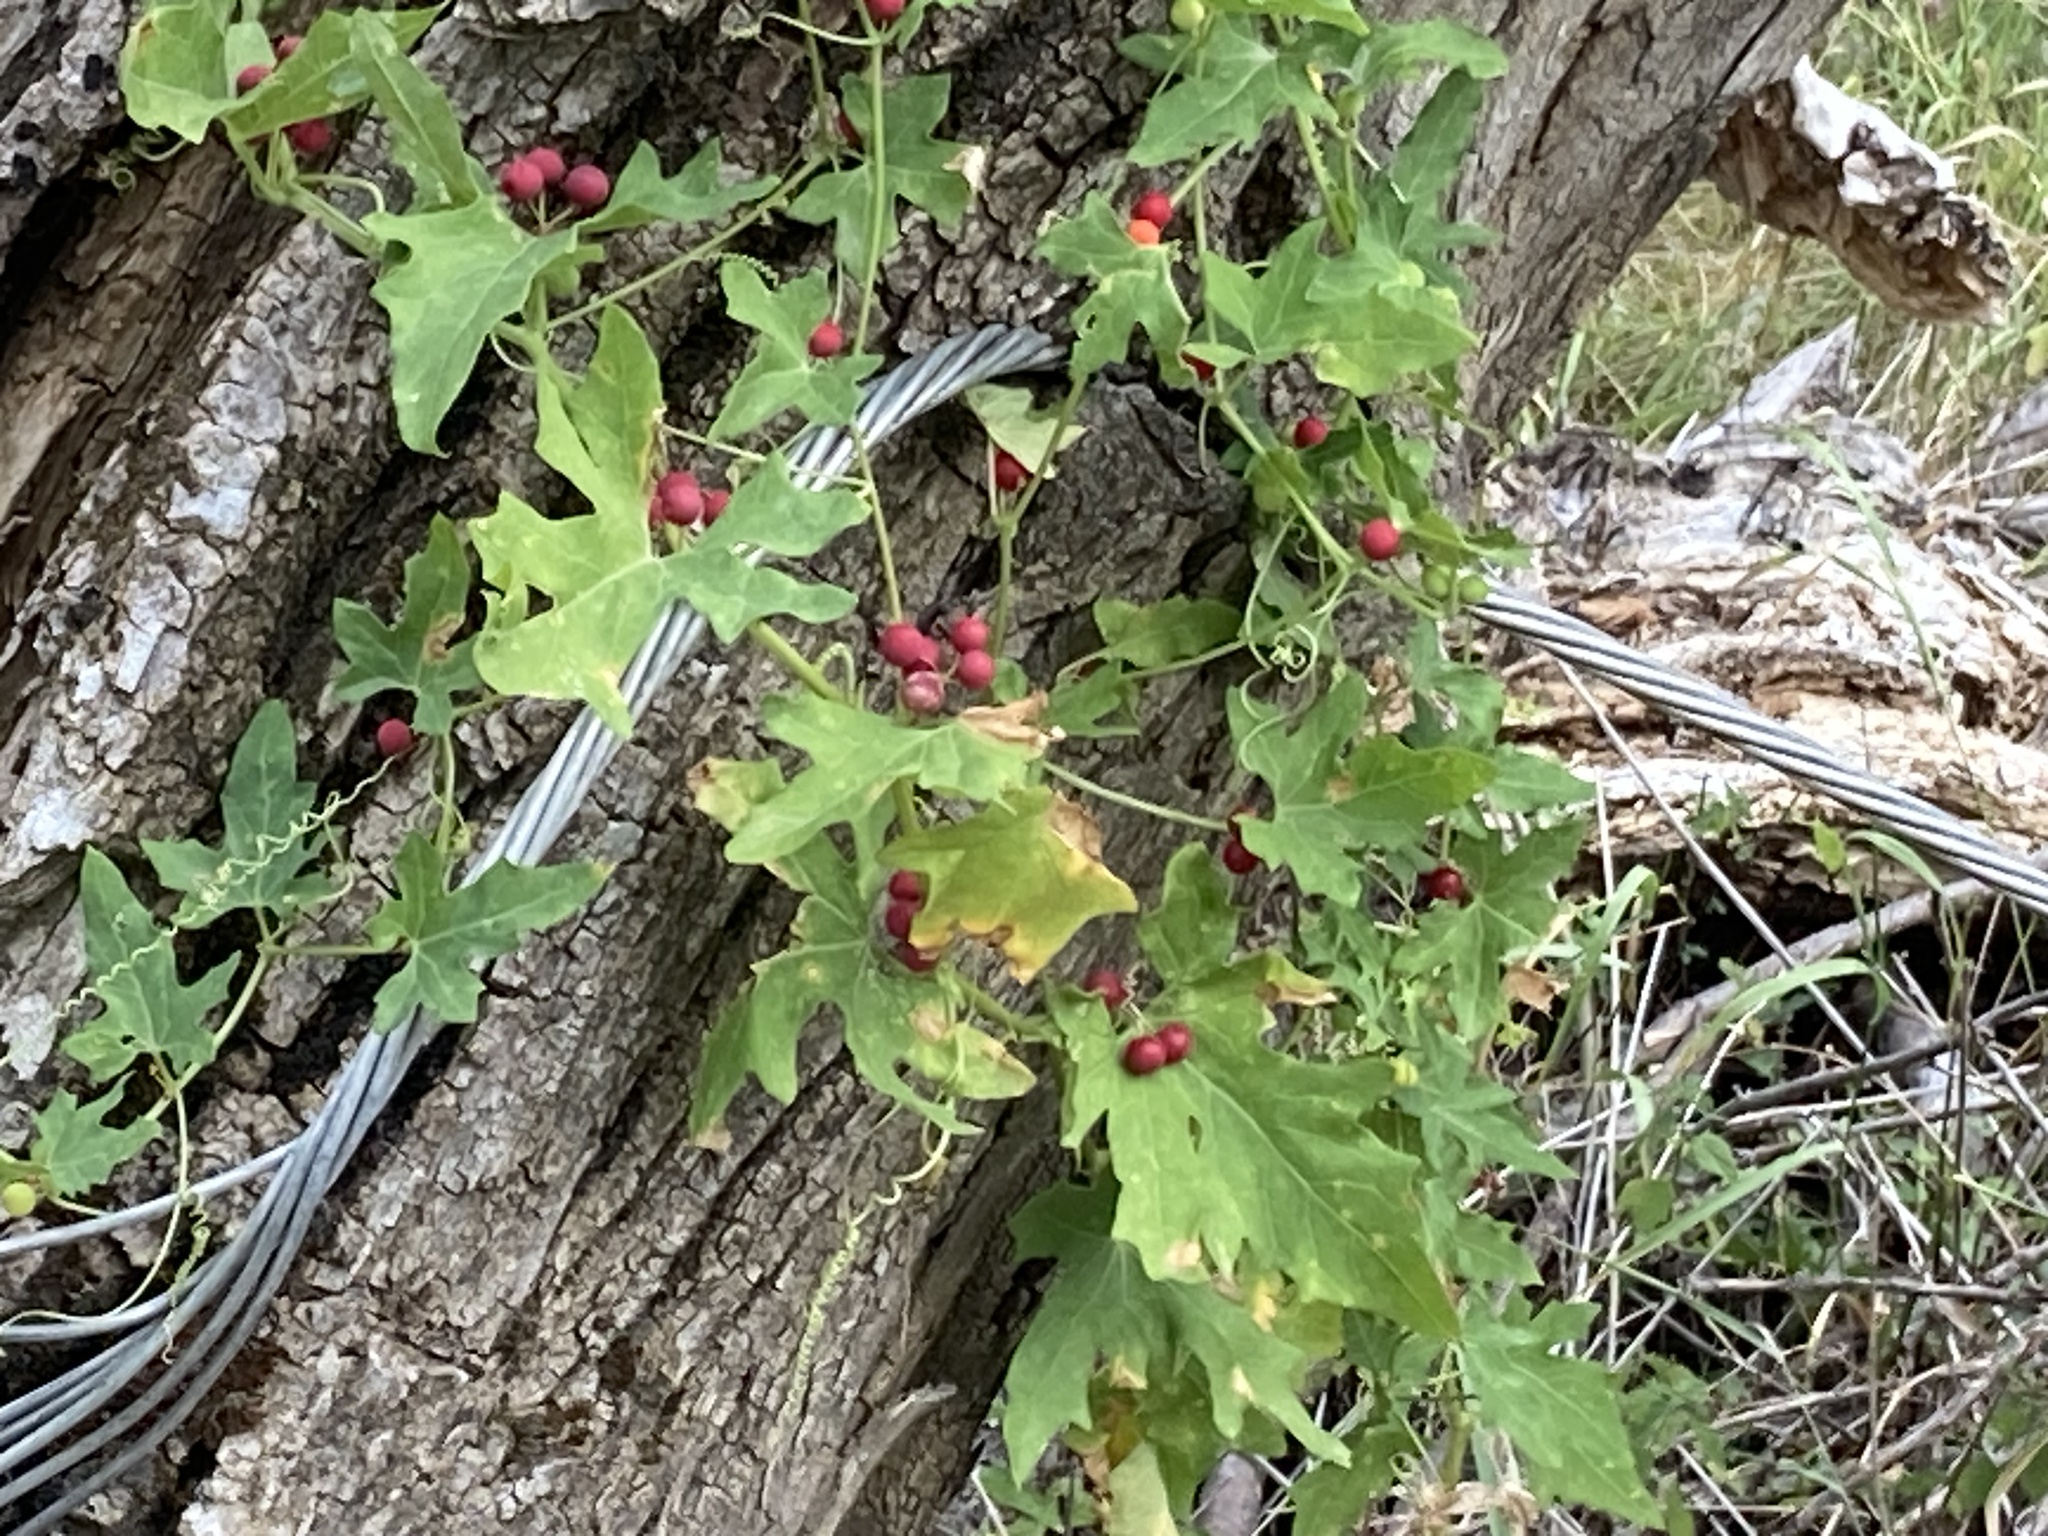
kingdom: Plantae
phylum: Tracheophyta
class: Magnoliopsida
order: Cucurbitales
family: Cucurbitaceae
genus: Bryonia
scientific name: Bryonia cretica
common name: Cretan bryony
